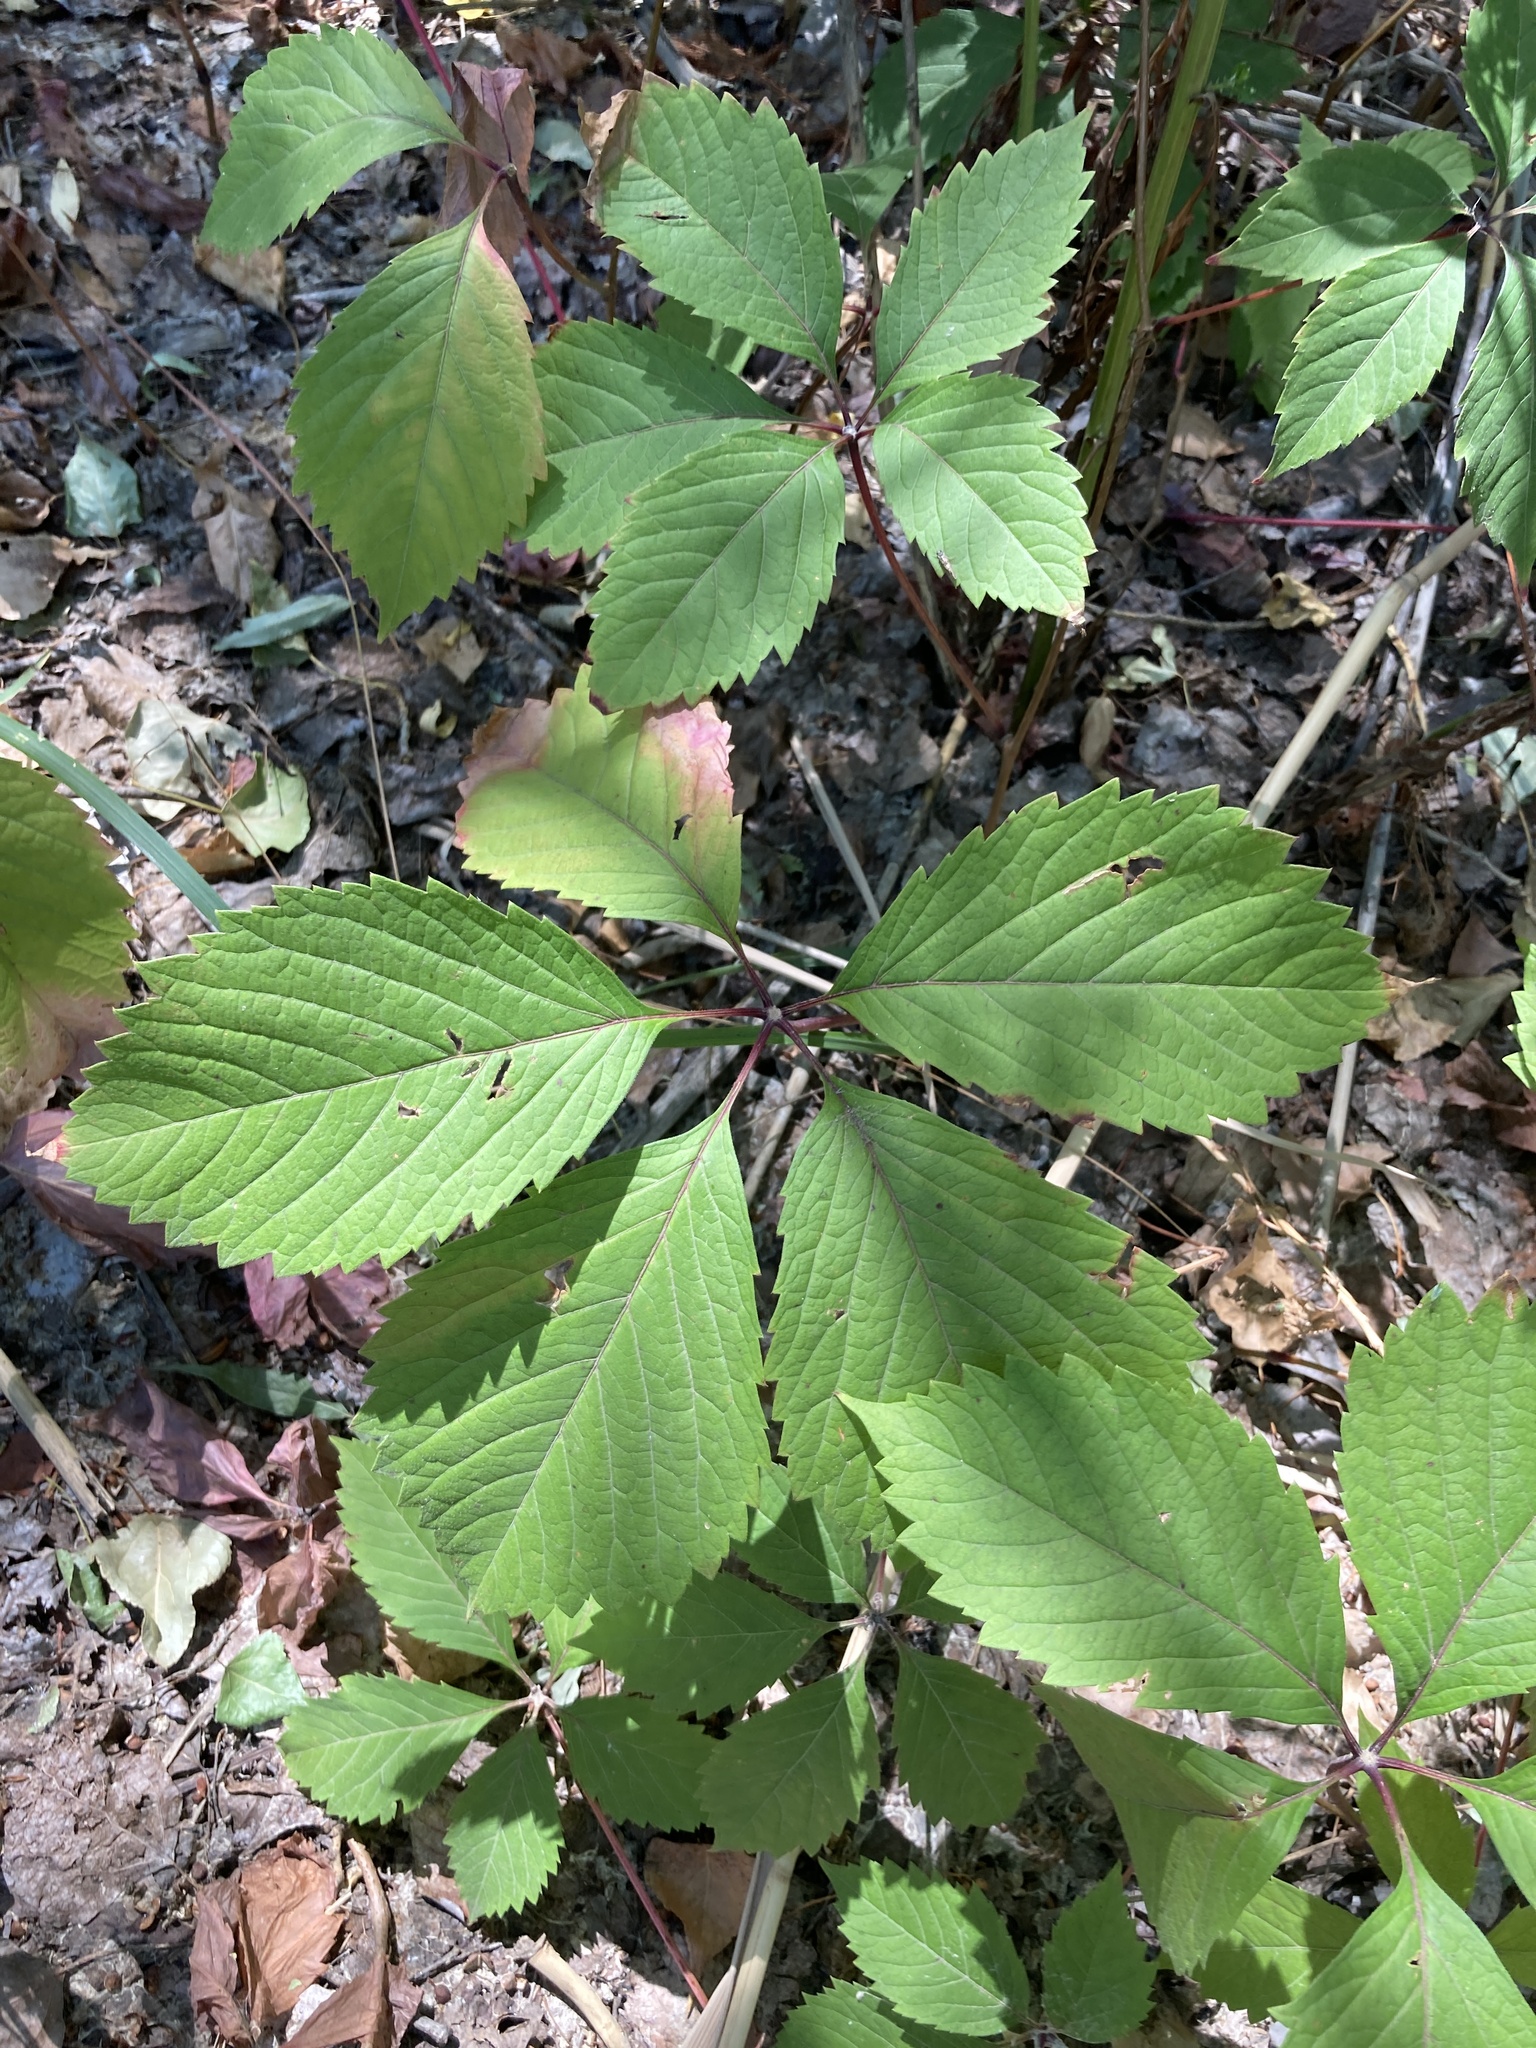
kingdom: Plantae
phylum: Tracheophyta
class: Magnoliopsida
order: Vitales
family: Vitaceae
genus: Parthenocissus
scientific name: Parthenocissus inserta
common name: False virginia-creeper
